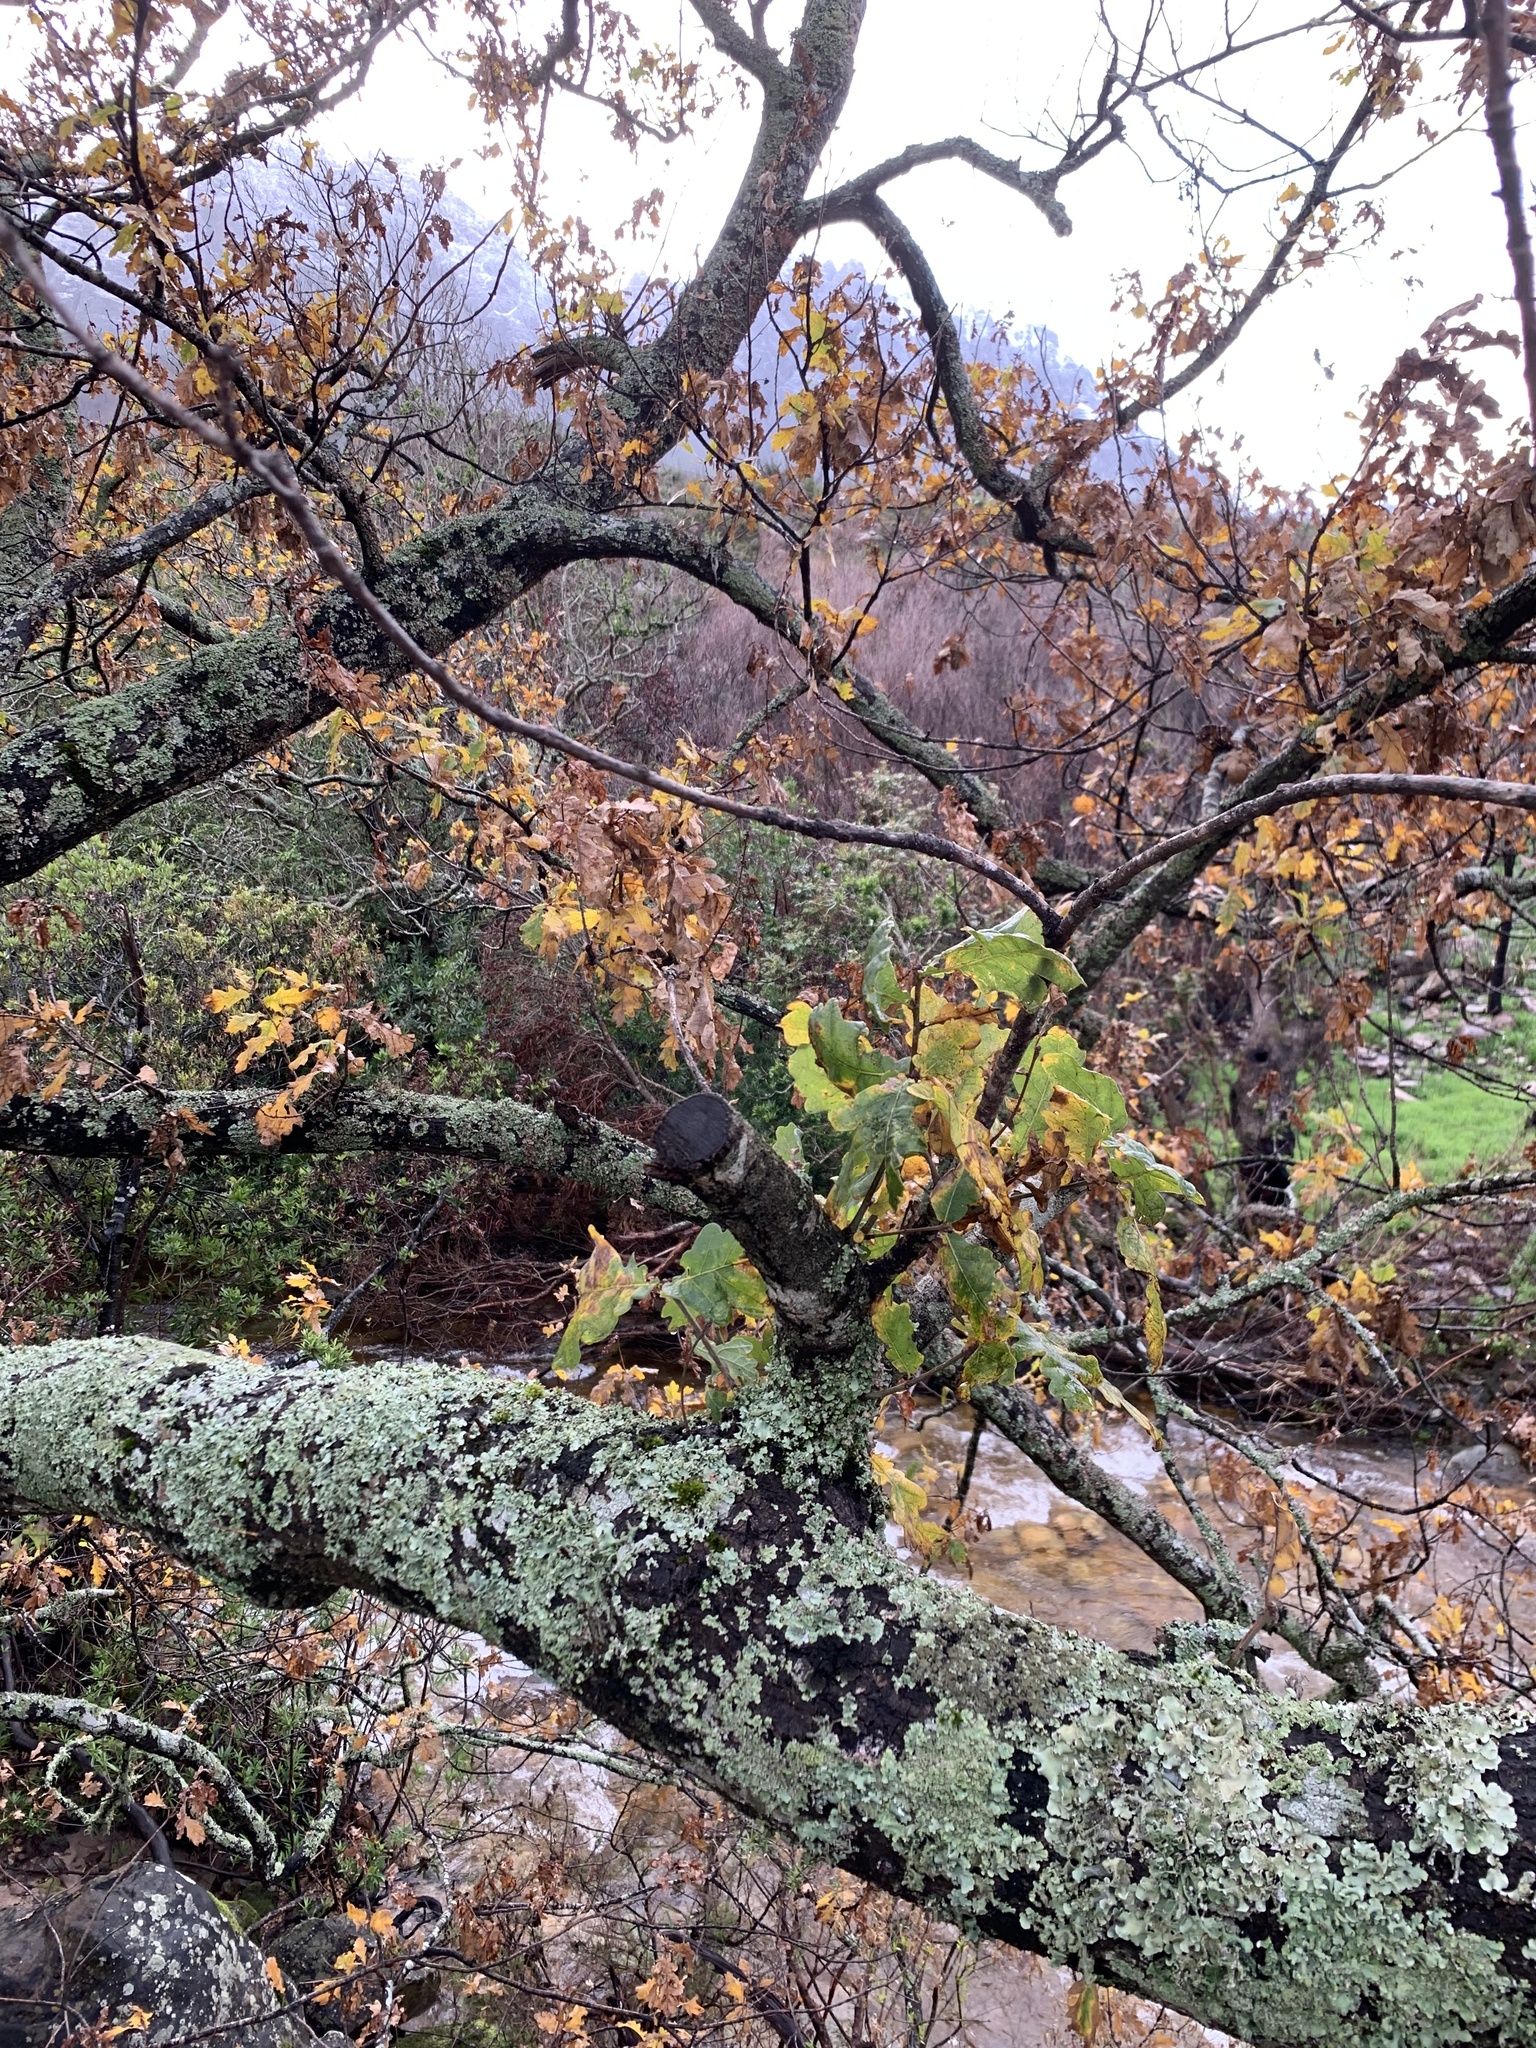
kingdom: Plantae
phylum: Tracheophyta
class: Magnoliopsida
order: Fagales
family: Fagaceae
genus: Quercus
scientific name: Quercus robur
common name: Pedunculate oak
